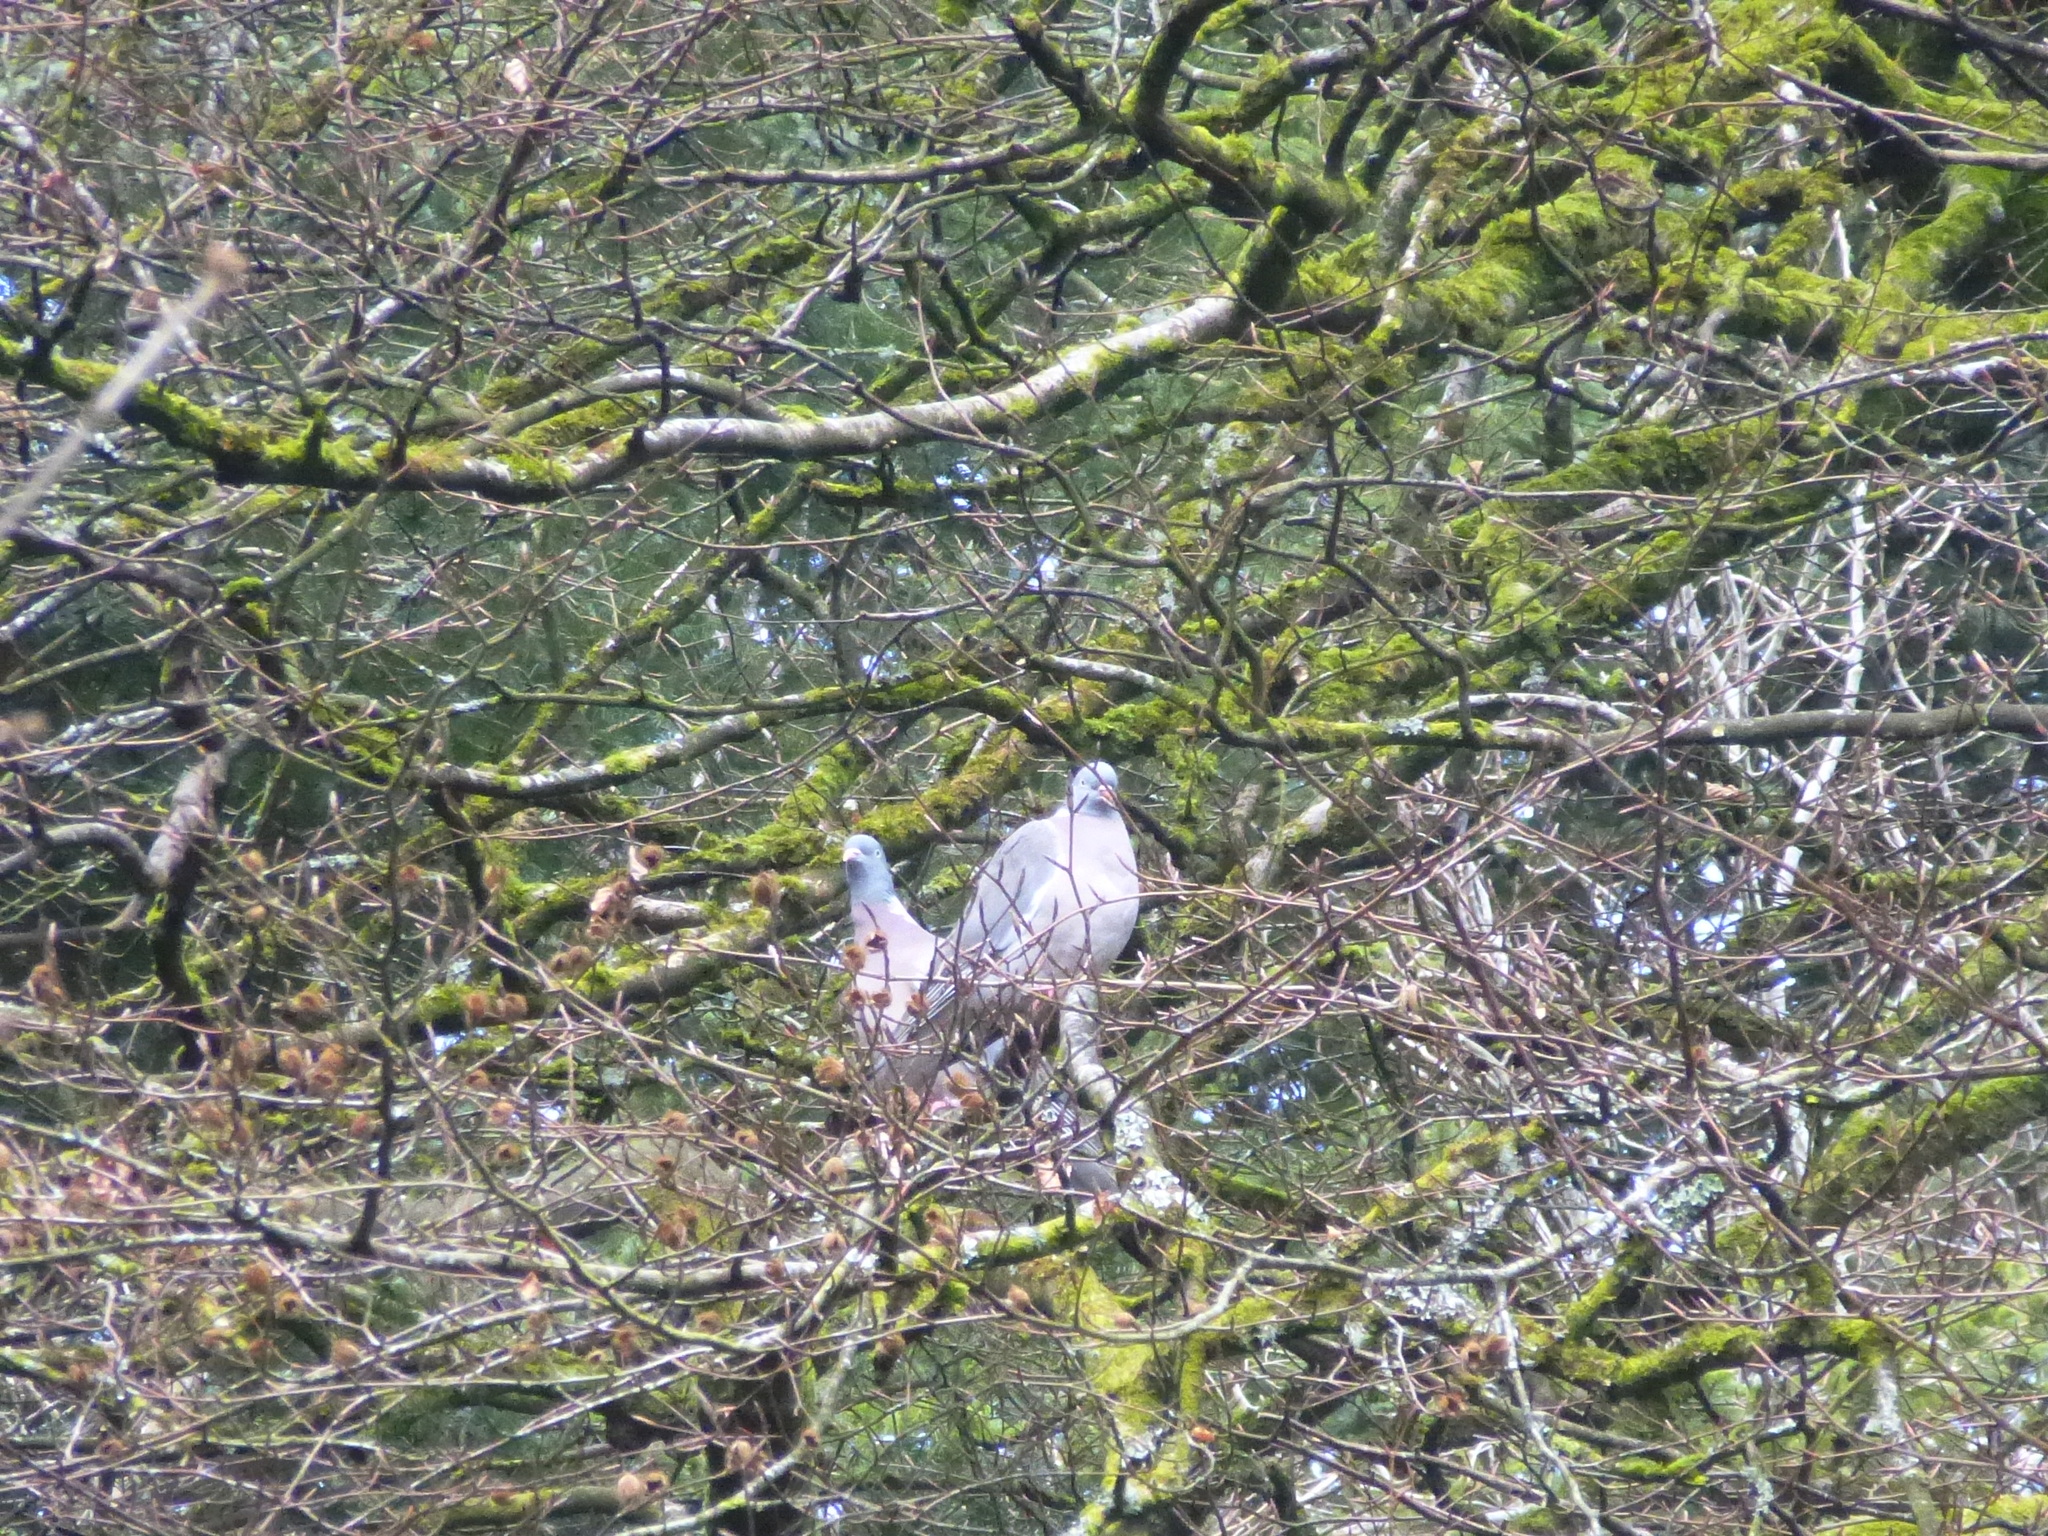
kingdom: Animalia
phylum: Chordata
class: Aves
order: Columbiformes
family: Columbidae
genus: Columba
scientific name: Columba palumbus
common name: Common wood pigeon
